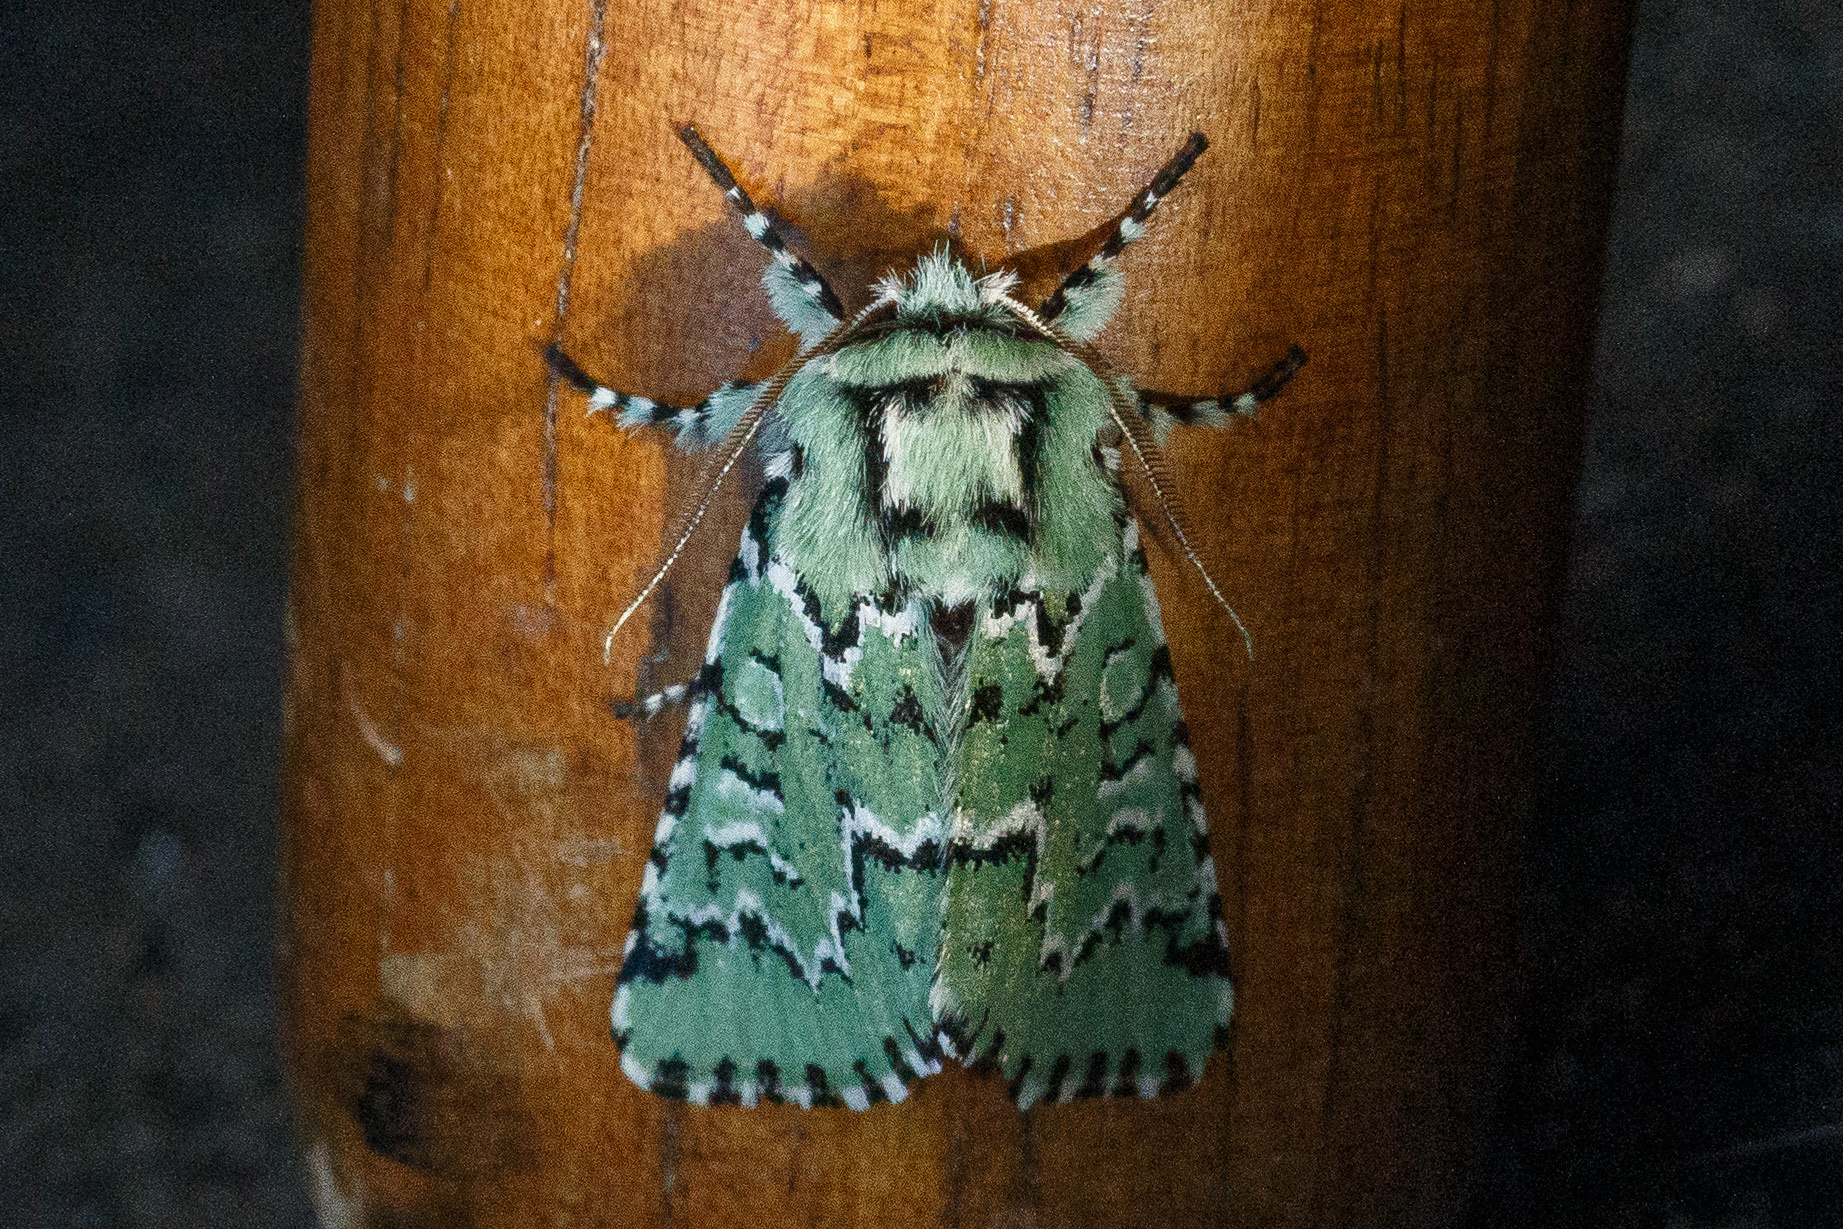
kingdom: Animalia
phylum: Arthropoda
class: Insecta
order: Lepidoptera
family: Noctuidae
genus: Feralia
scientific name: Feralia deceptiva
